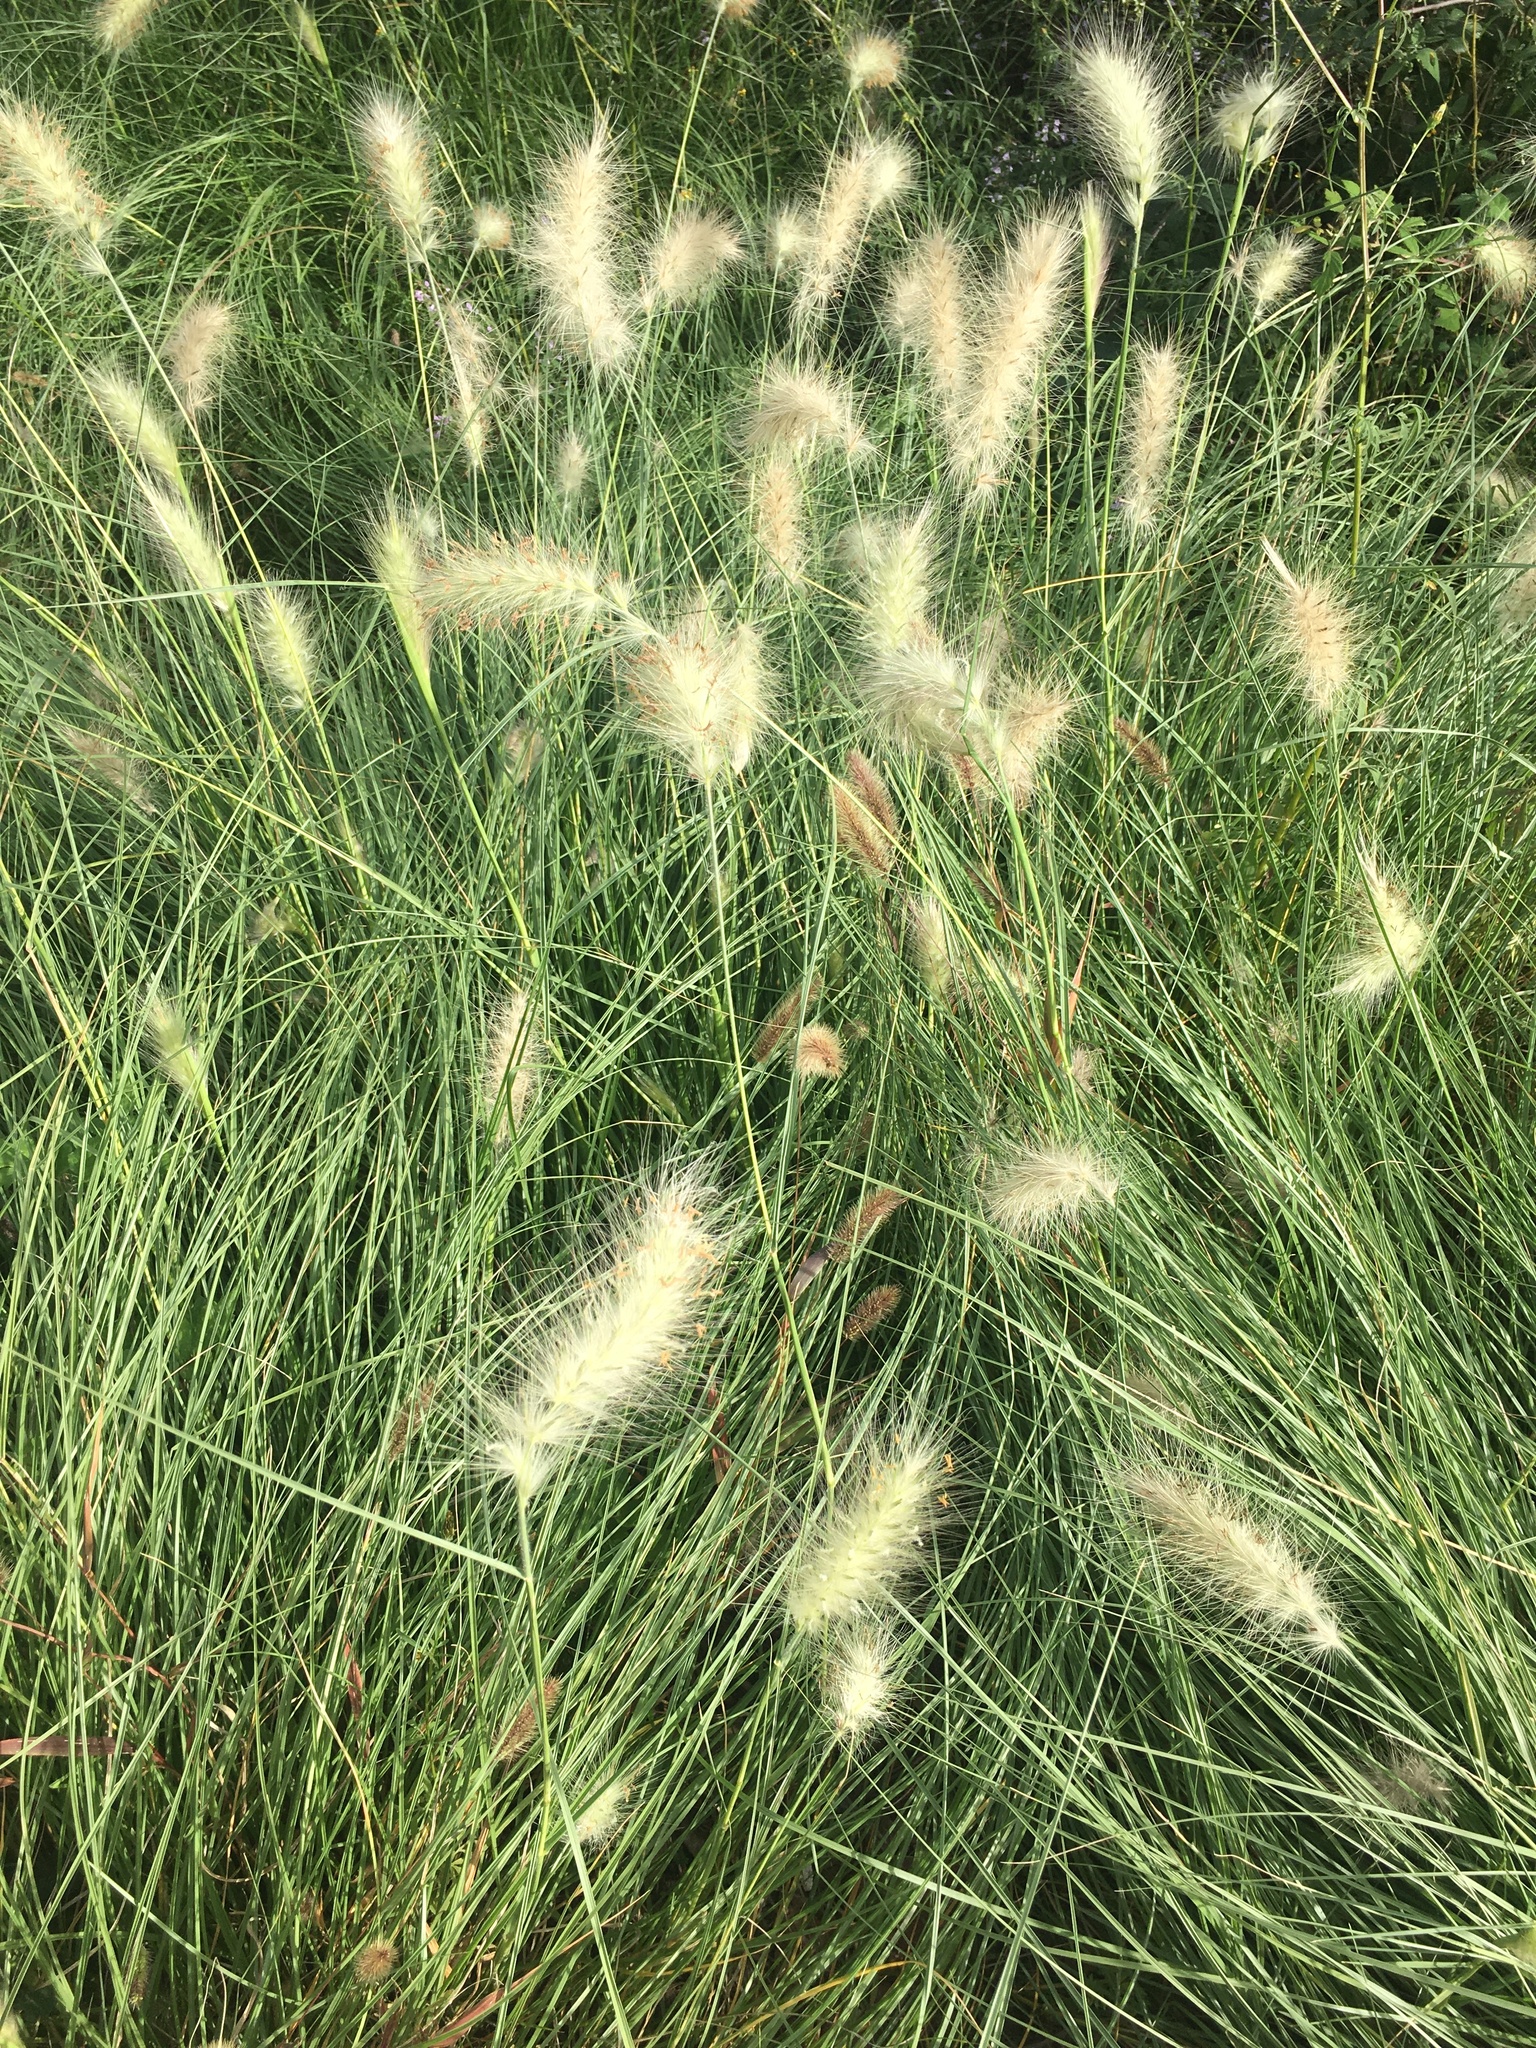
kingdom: Plantae
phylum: Tracheophyta
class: Liliopsida
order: Poales
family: Poaceae
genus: Cenchrus
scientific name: Cenchrus longisetus
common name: Feathertop
